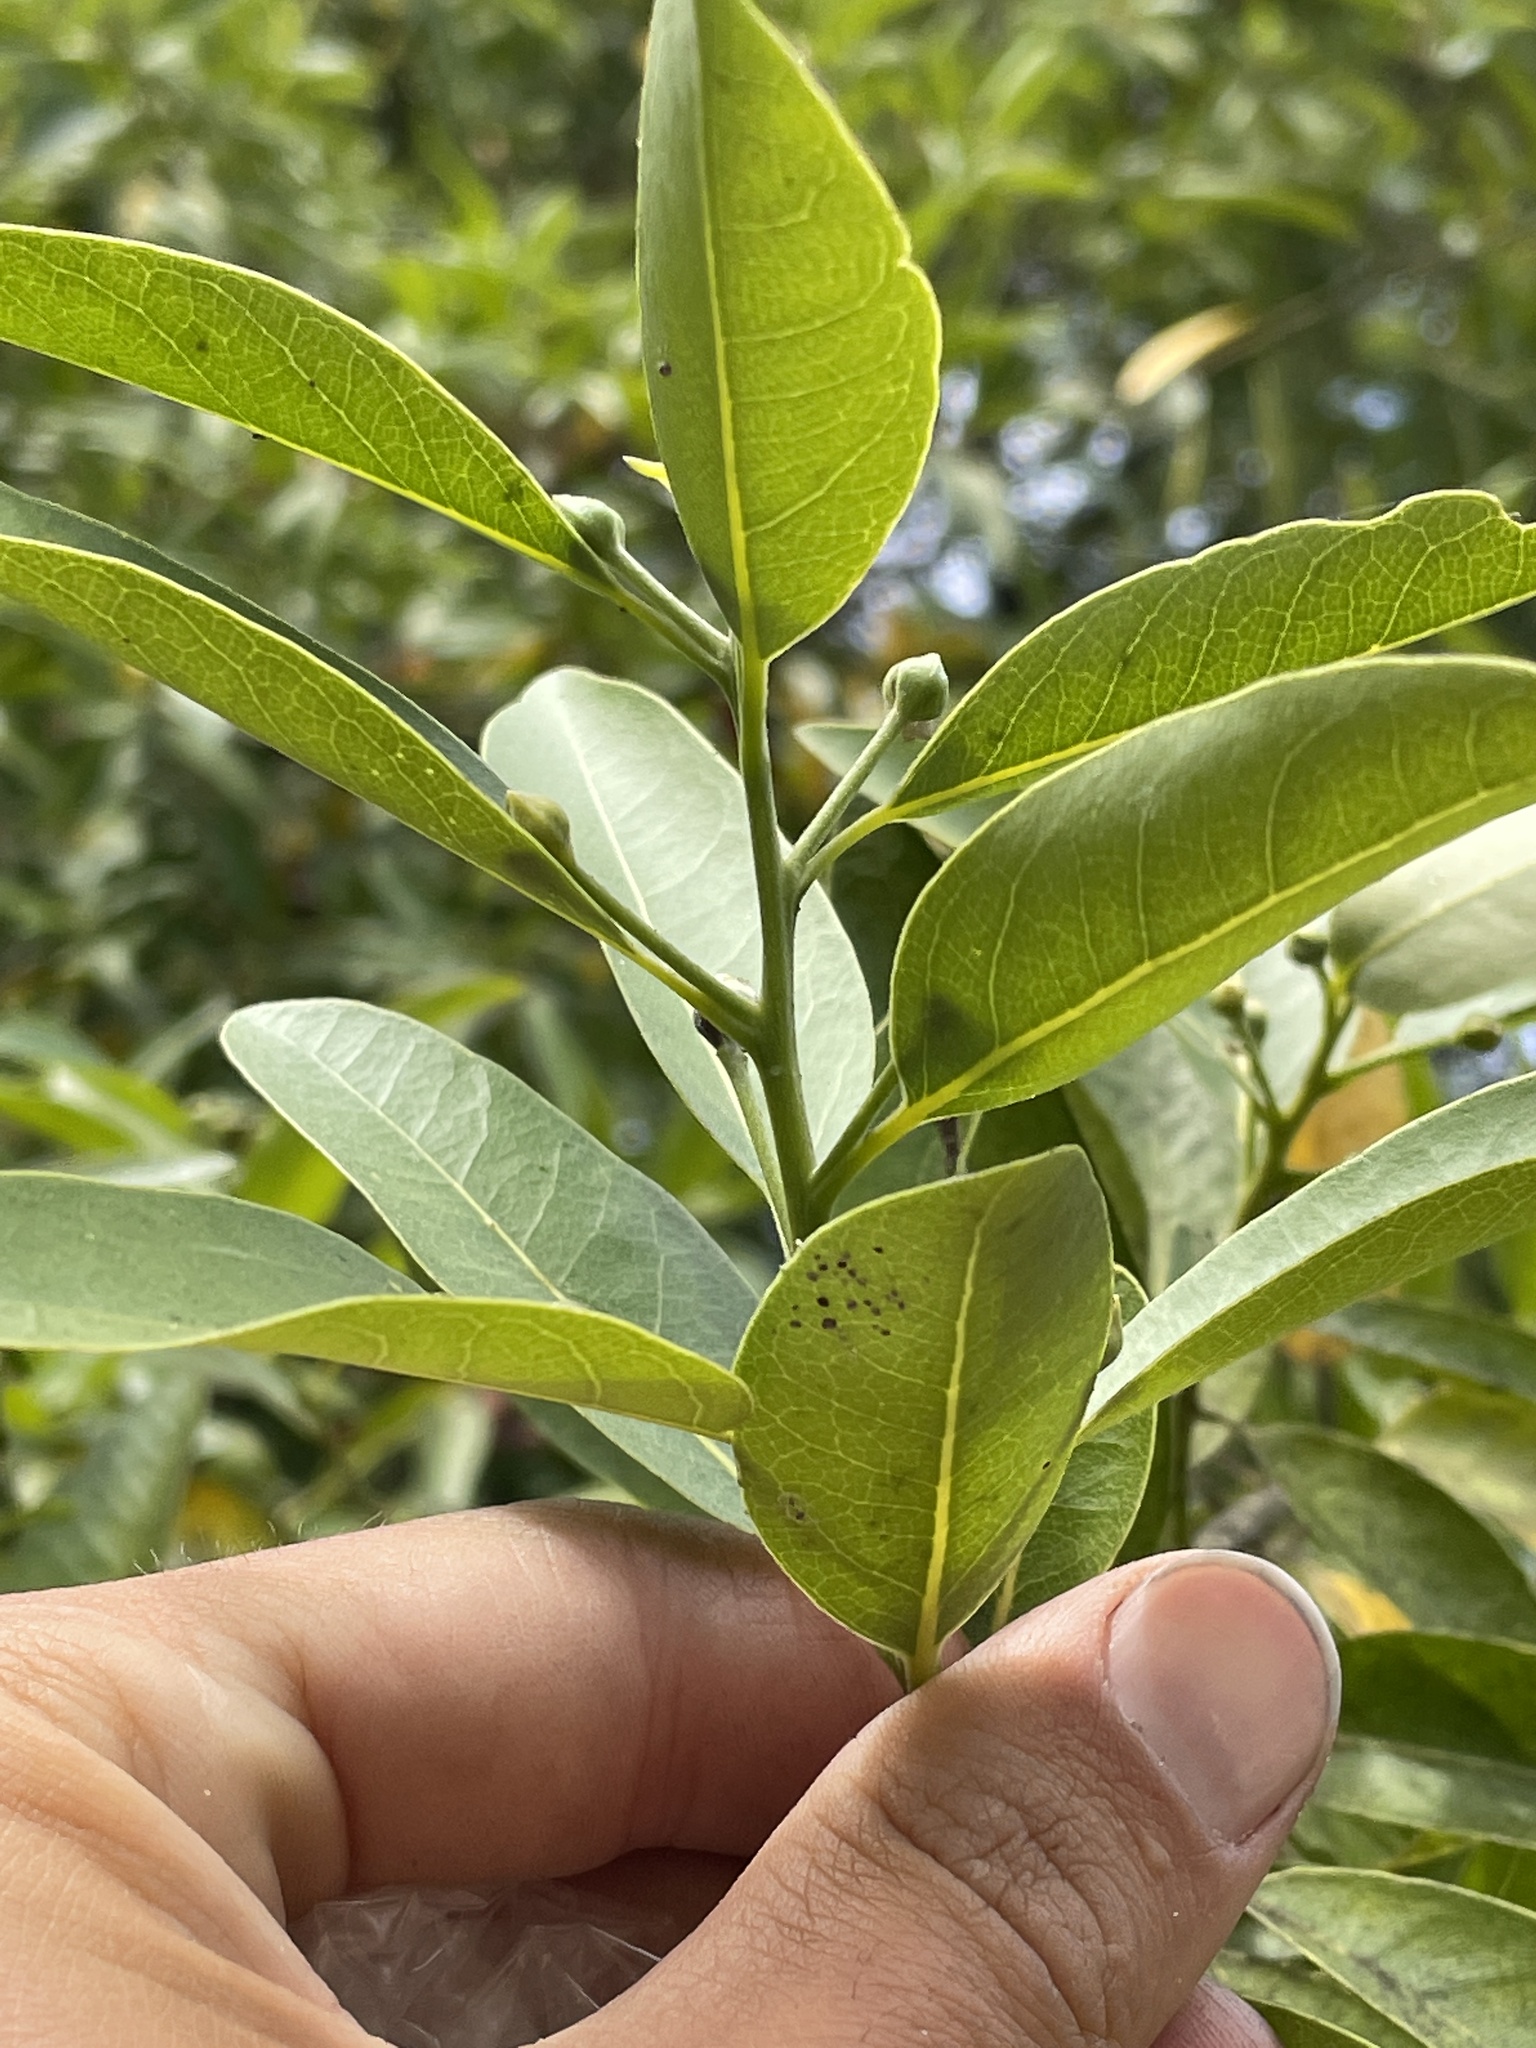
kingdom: Plantae
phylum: Tracheophyta
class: Magnoliopsida
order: Laurales
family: Lauraceae
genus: Umbellularia
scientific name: Umbellularia californica
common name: California bay
